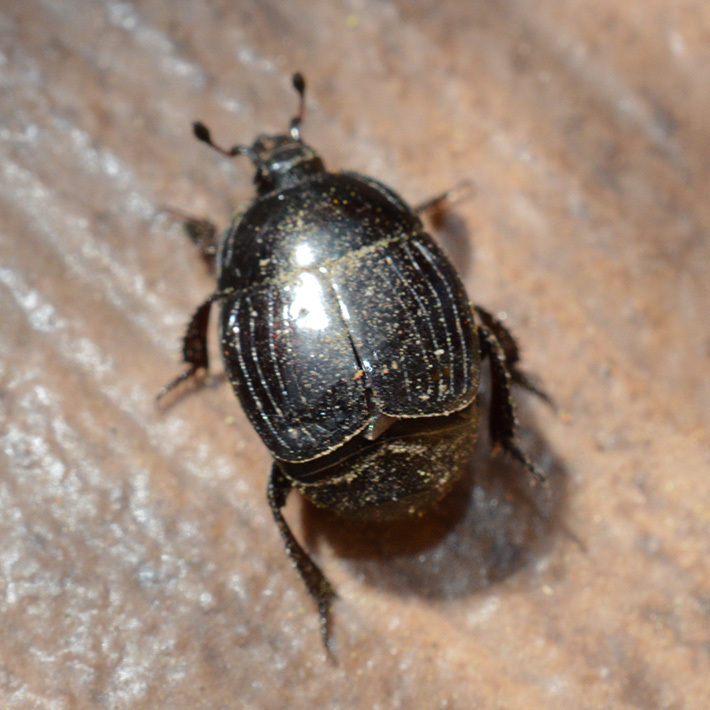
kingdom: Animalia
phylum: Arthropoda
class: Insecta
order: Coleoptera
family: Histeridae
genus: Margarinotus
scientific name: Margarinotus brunneus
